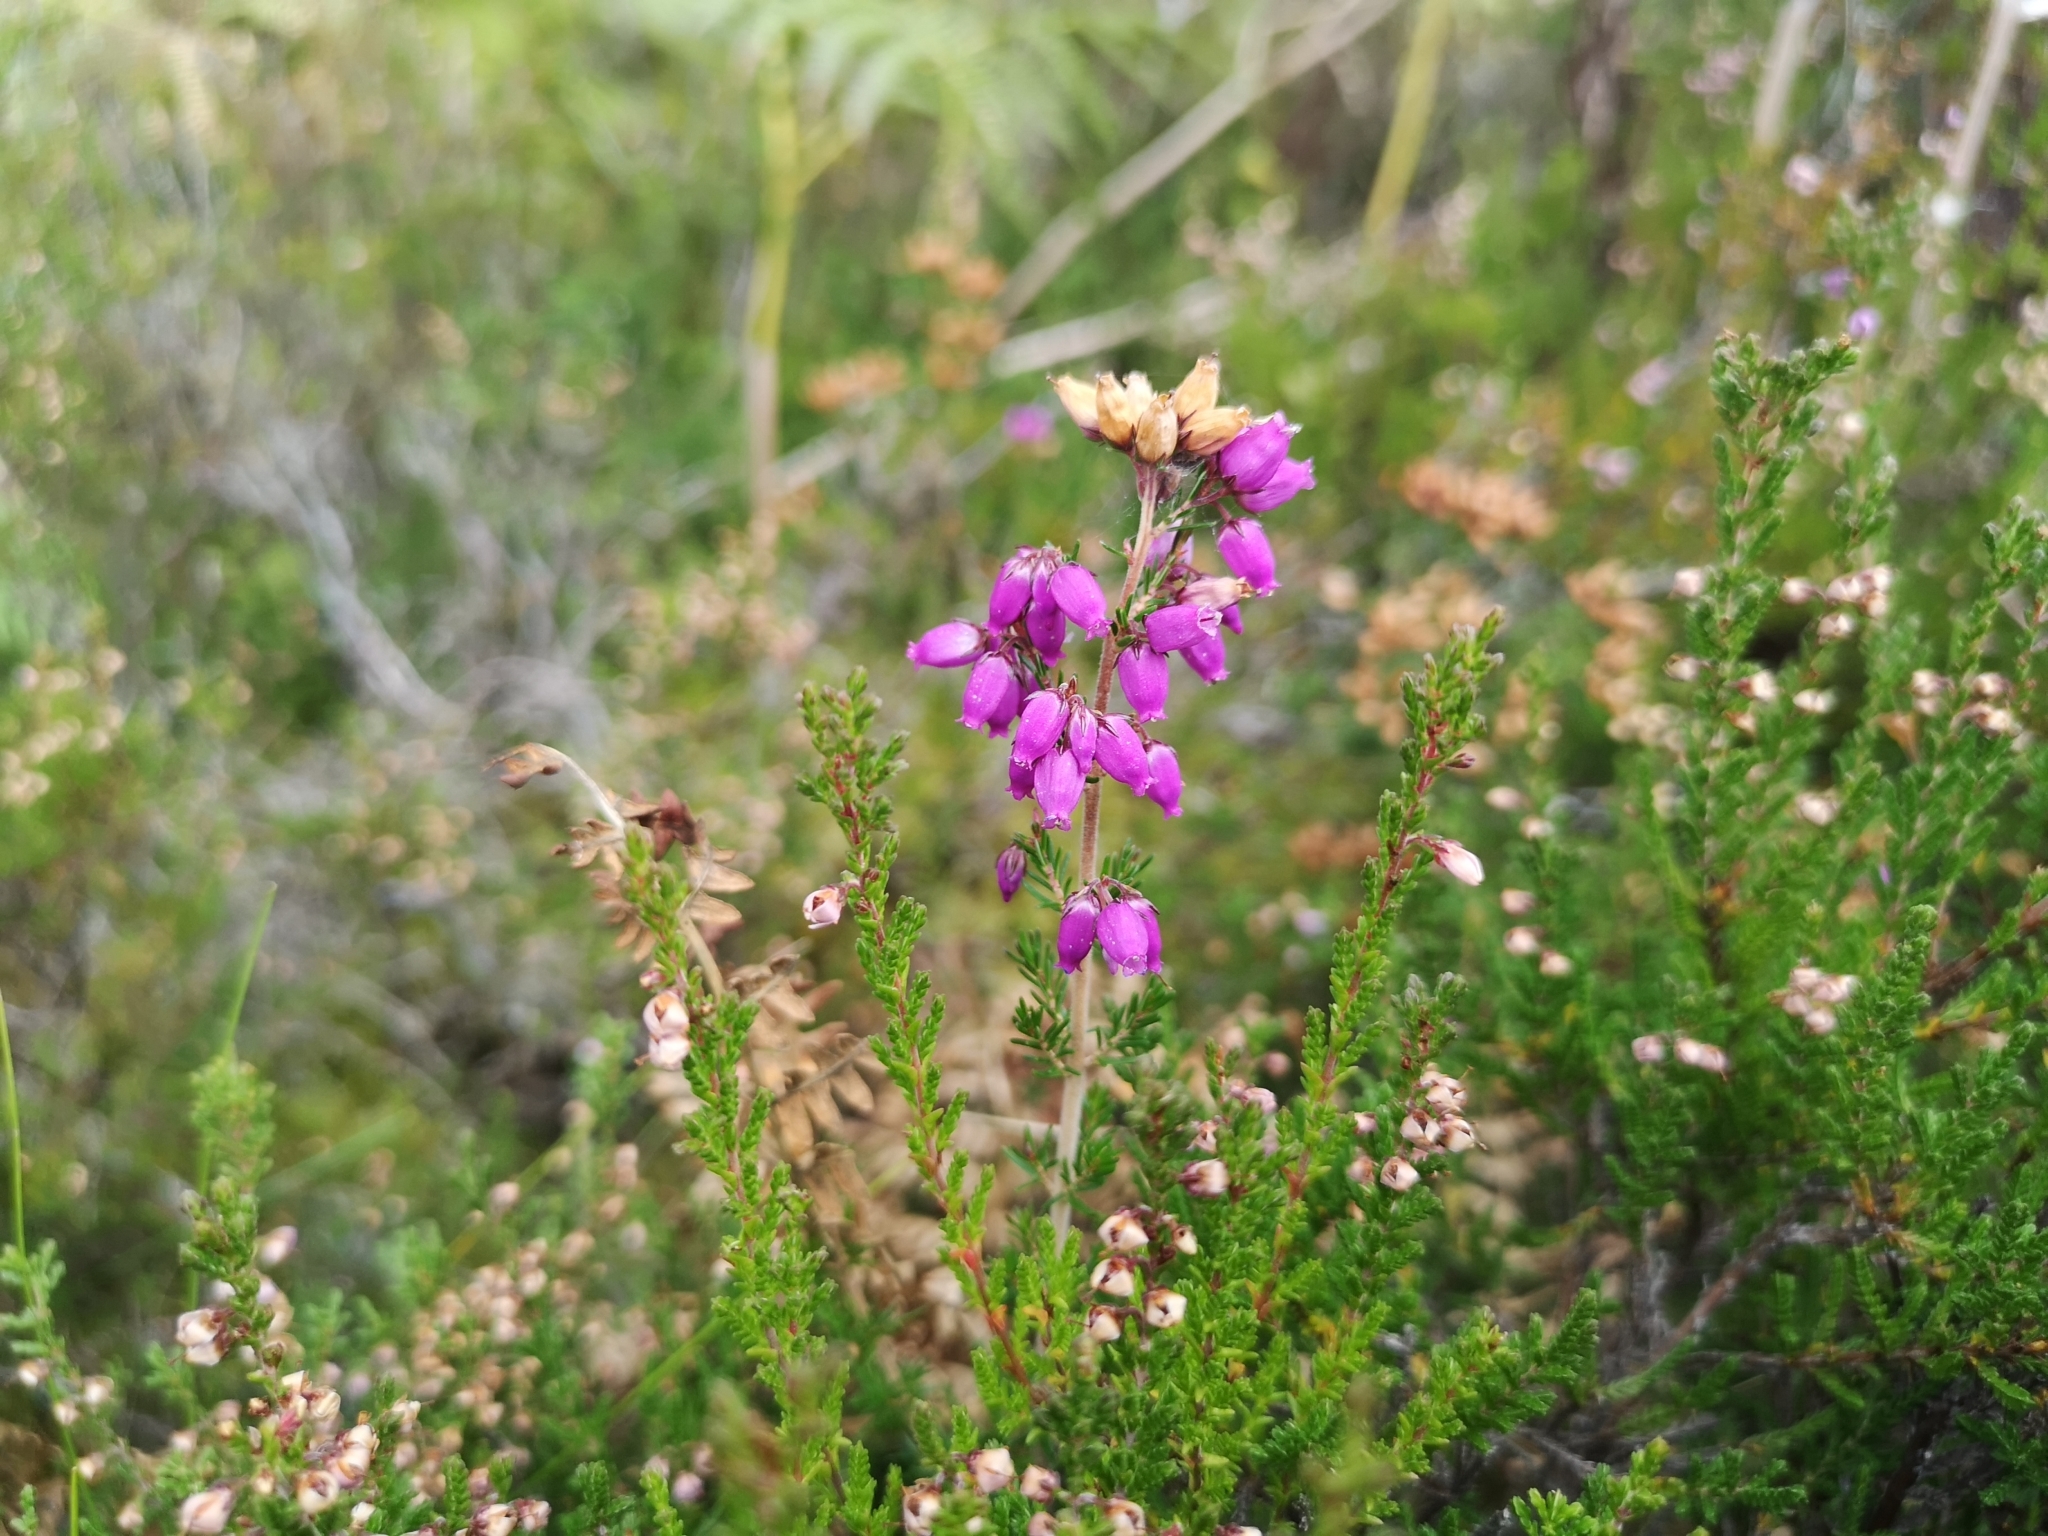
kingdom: Plantae
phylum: Tracheophyta
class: Magnoliopsida
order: Ericales
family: Ericaceae
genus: Erica
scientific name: Erica cinerea
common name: Bell heather
